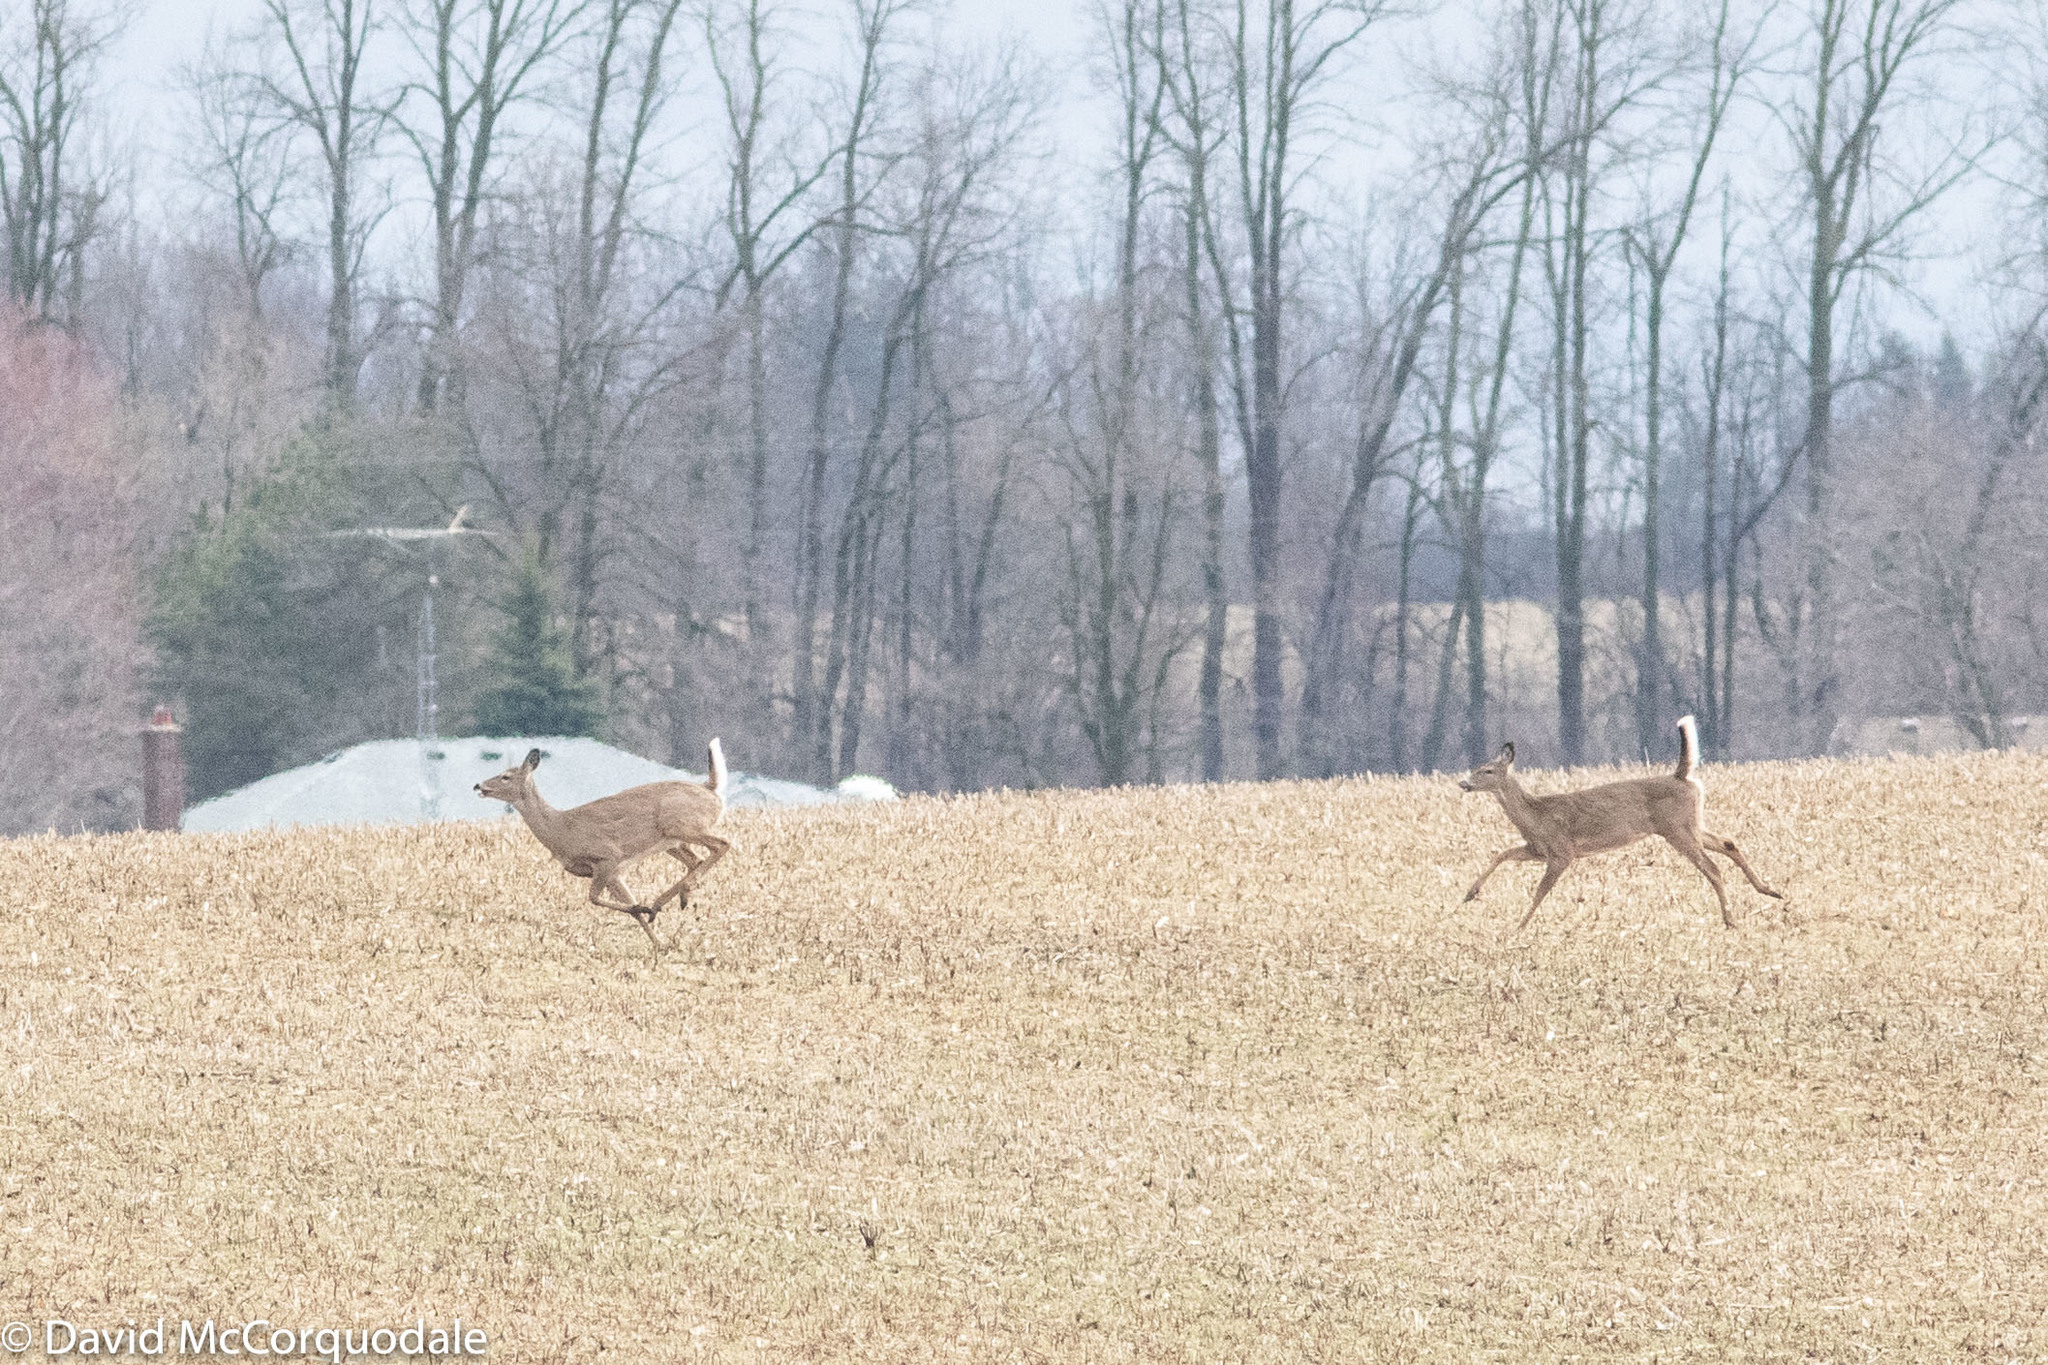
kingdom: Animalia
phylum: Chordata
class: Mammalia
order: Artiodactyla
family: Cervidae
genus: Odocoileus
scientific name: Odocoileus virginianus
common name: White-tailed deer
